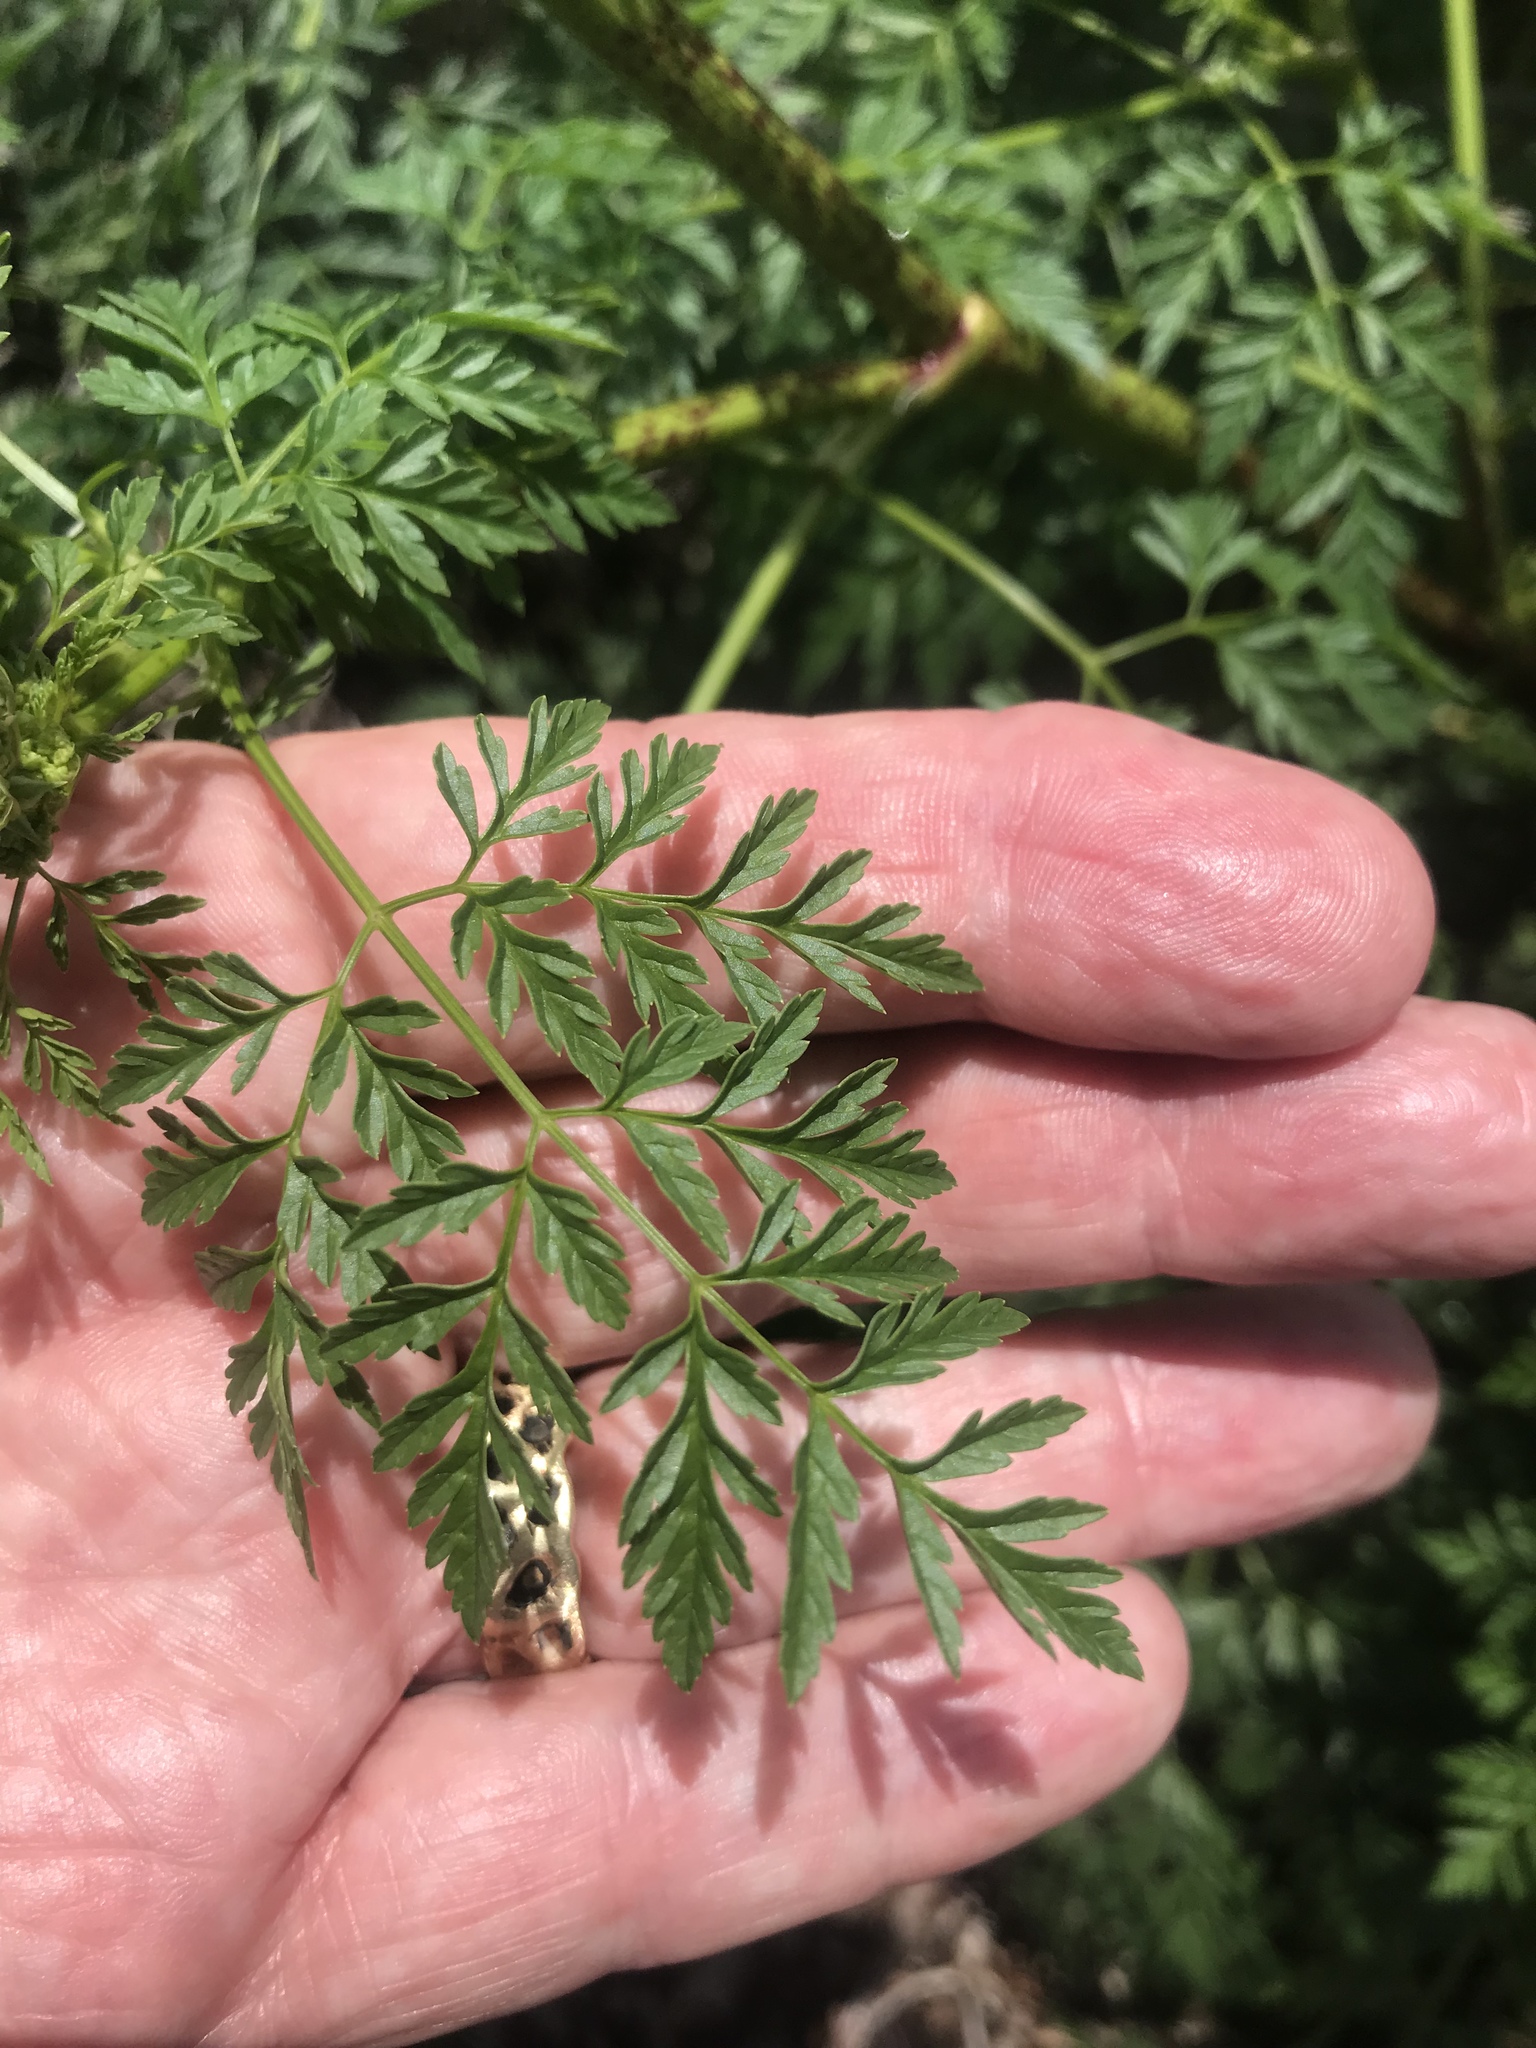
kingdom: Plantae
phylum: Tracheophyta
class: Magnoliopsida
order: Apiales
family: Apiaceae
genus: Conium
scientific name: Conium maculatum
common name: Hemlock
